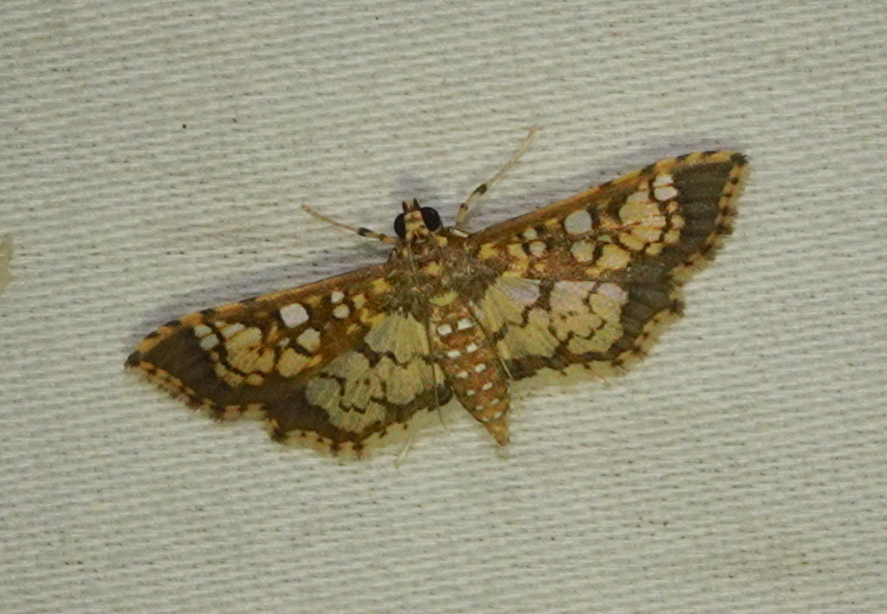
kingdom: Animalia
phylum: Arthropoda
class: Insecta
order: Lepidoptera
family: Crambidae
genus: Samea
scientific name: Samea ecclesialis
